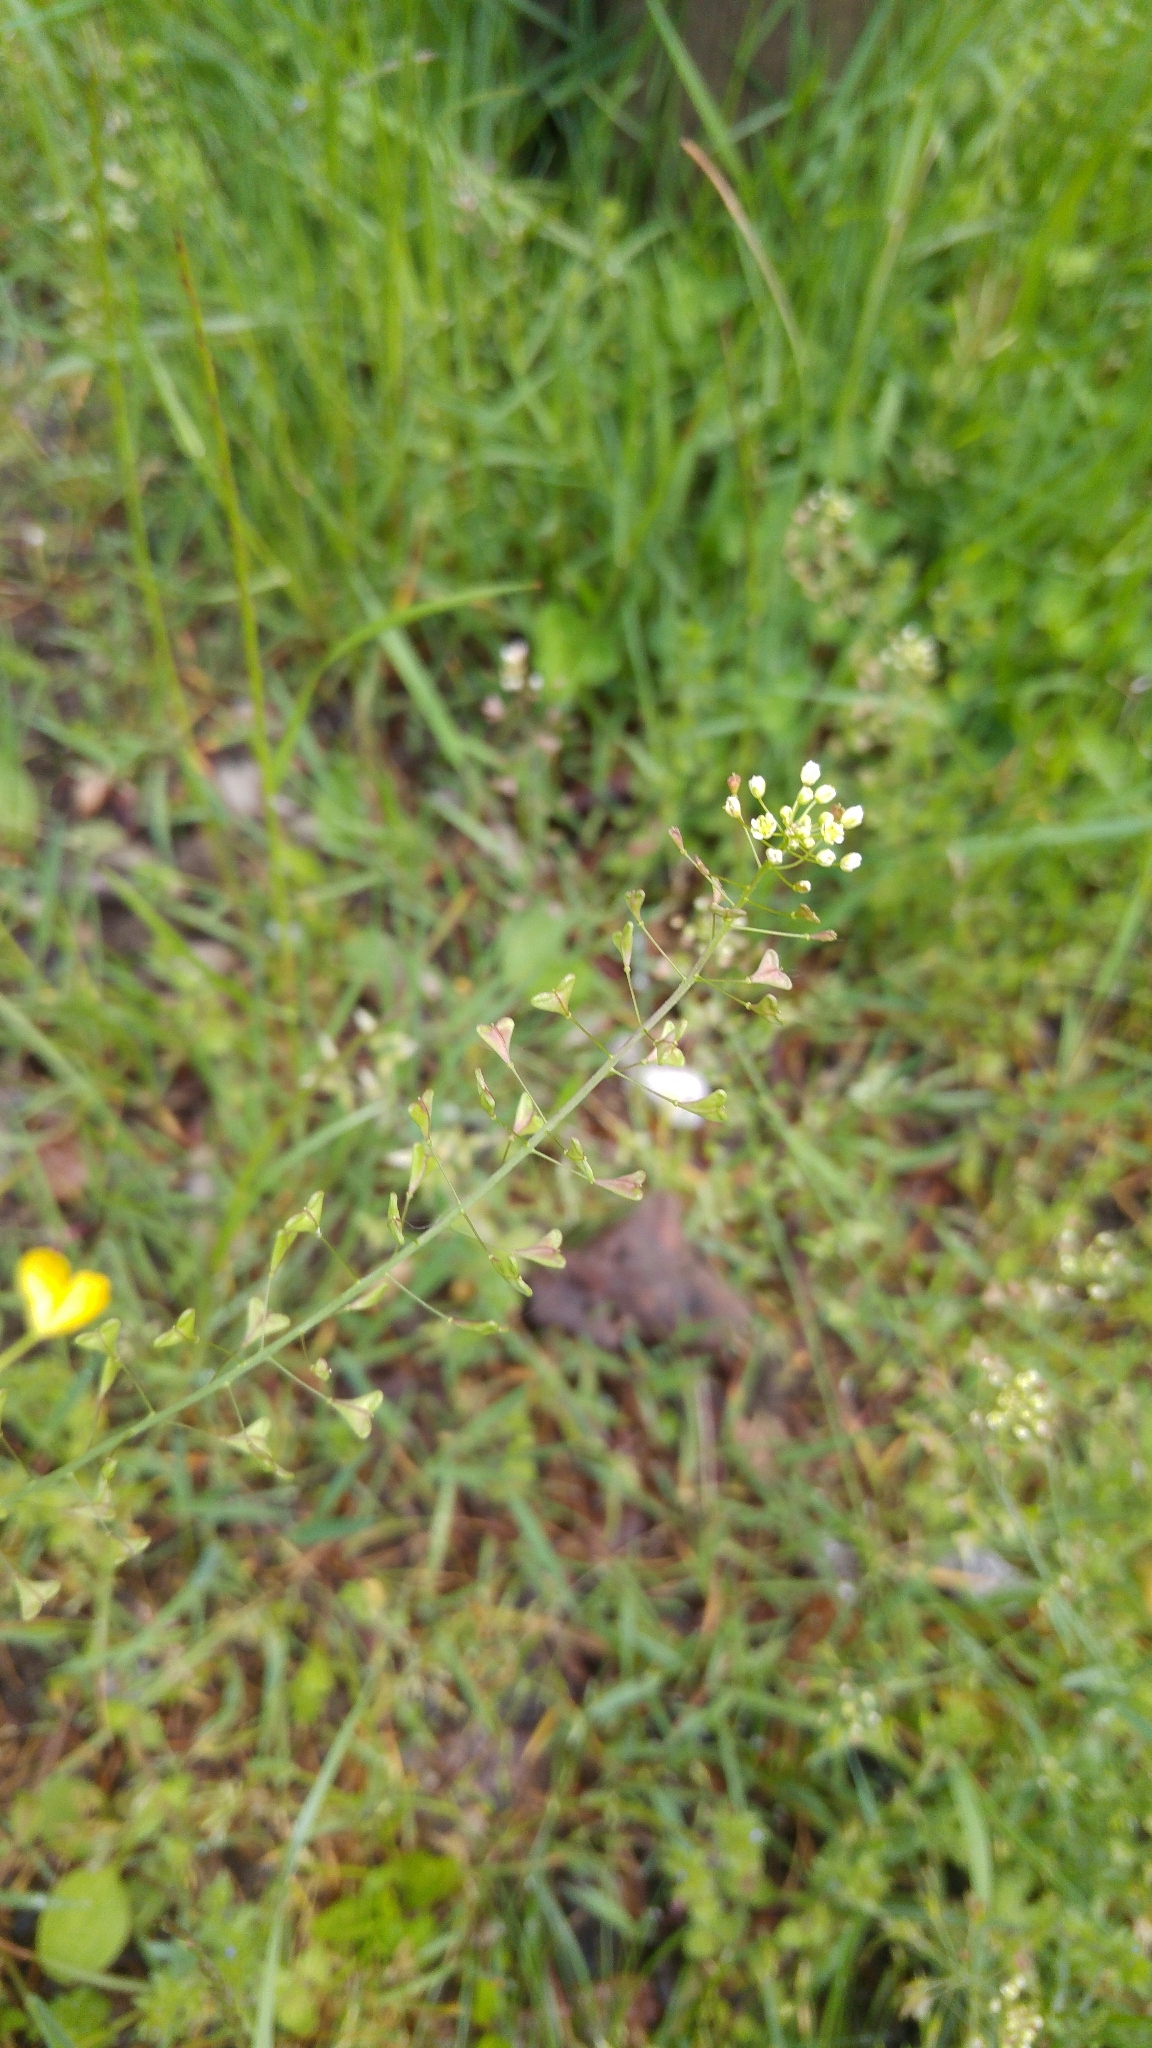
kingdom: Plantae
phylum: Tracheophyta
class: Magnoliopsida
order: Brassicales
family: Brassicaceae
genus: Capsella
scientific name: Capsella bursa-pastoris
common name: Shepherd's purse
